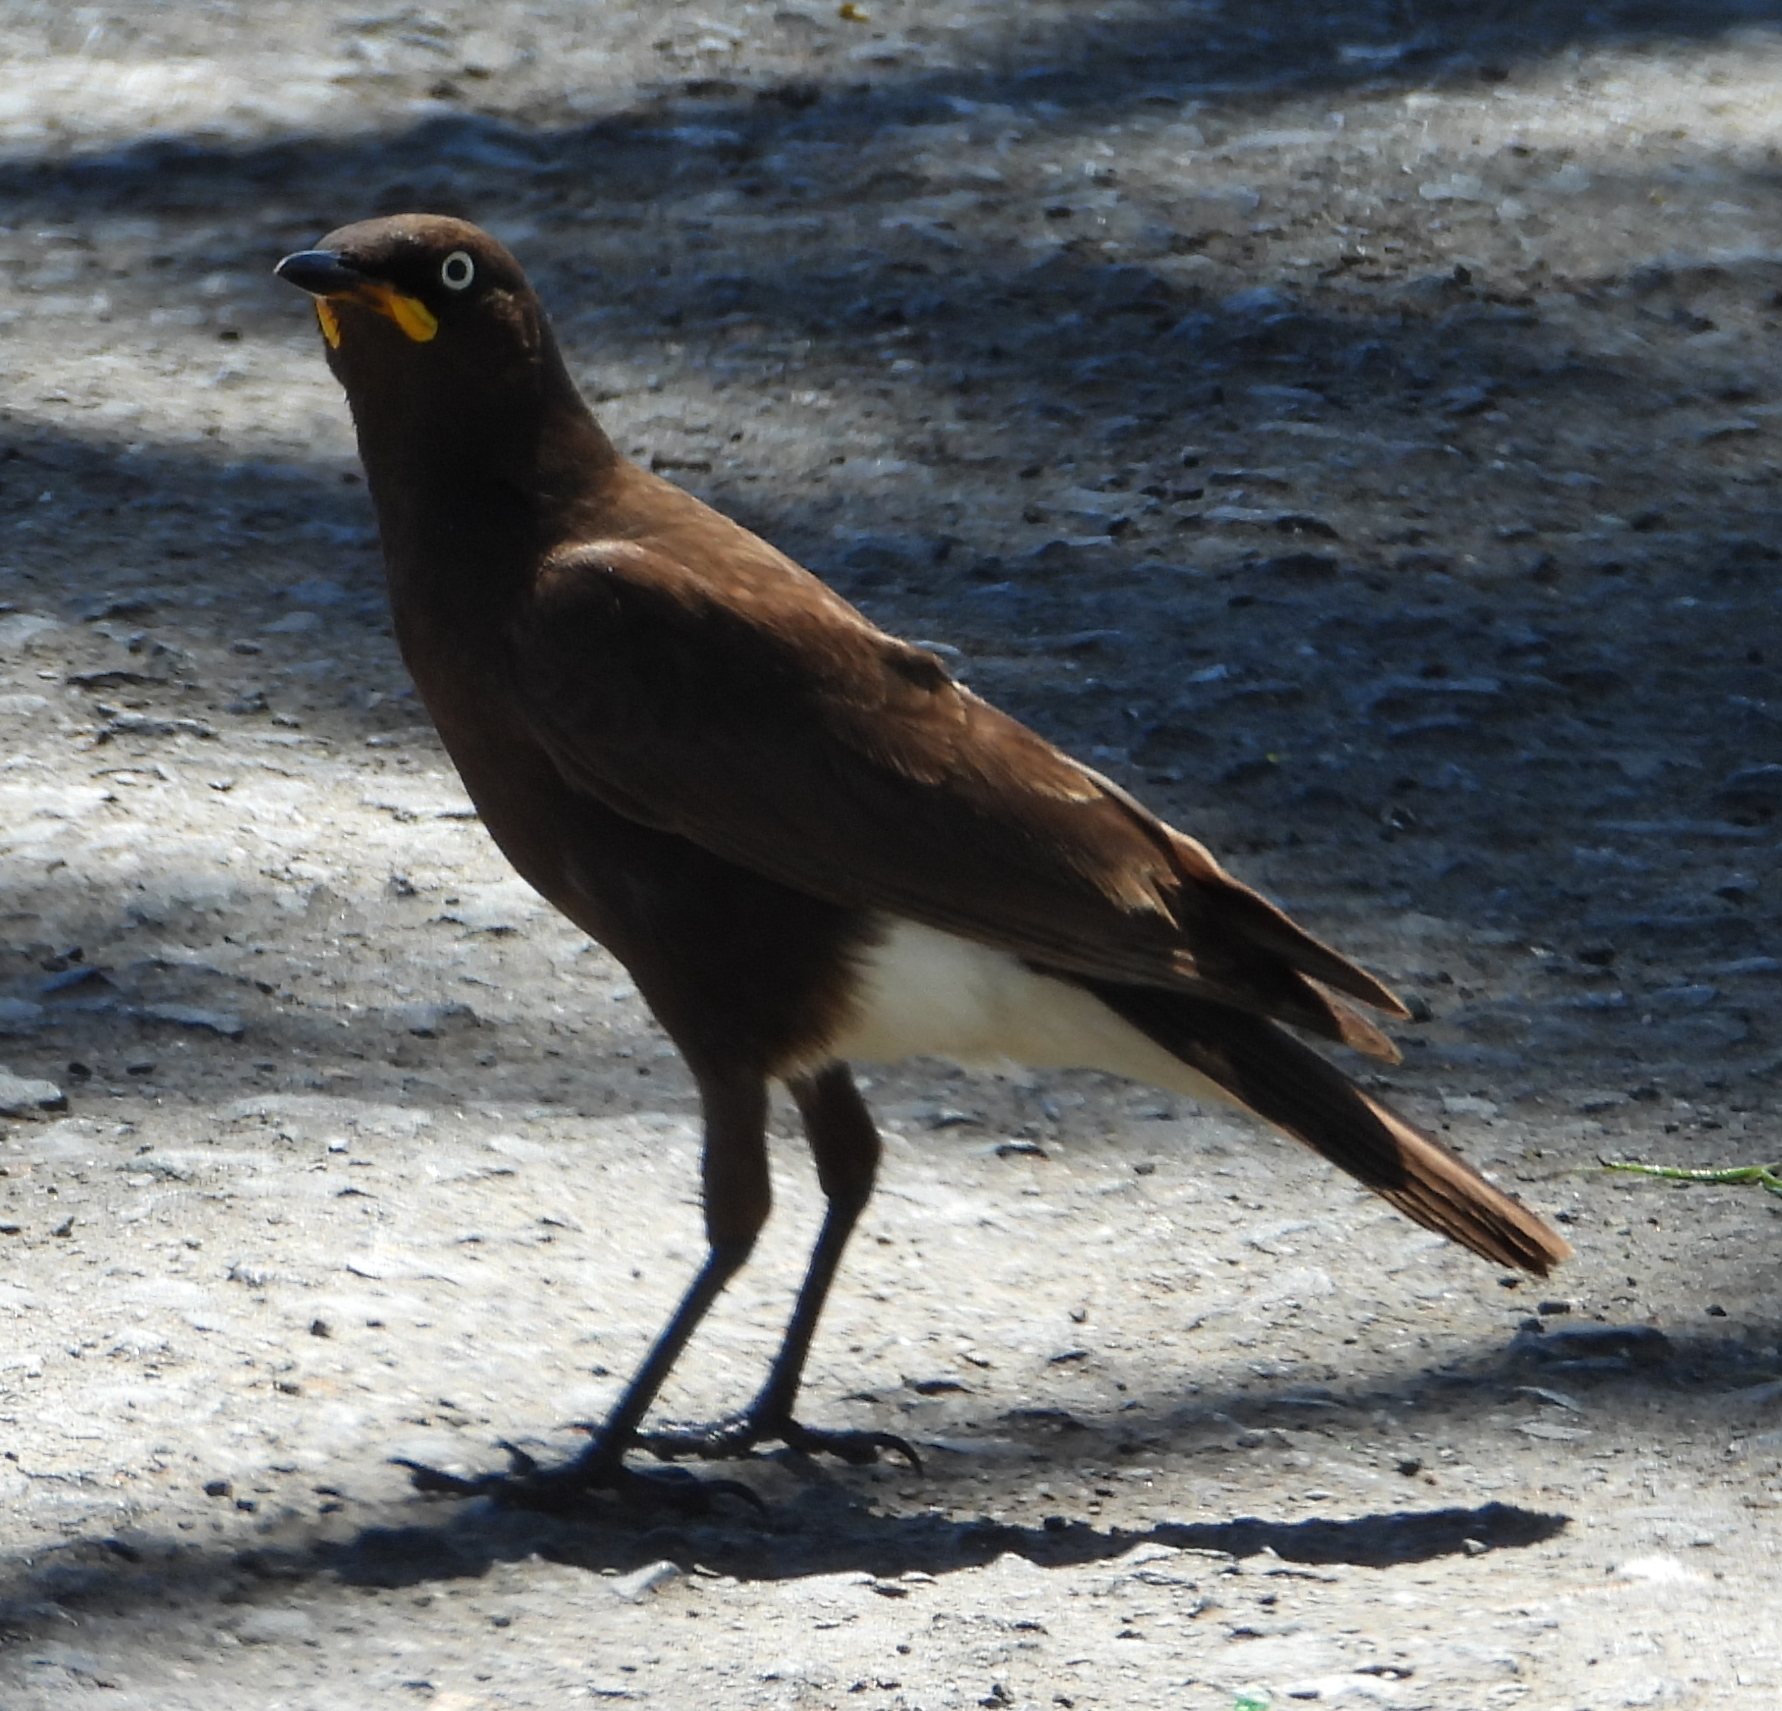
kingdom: Animalia
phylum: Chordata
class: Aves
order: Passeriformes
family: Sturnidae
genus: Lamprotornis
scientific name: Lamprotornis bicolor
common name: Pied starling
